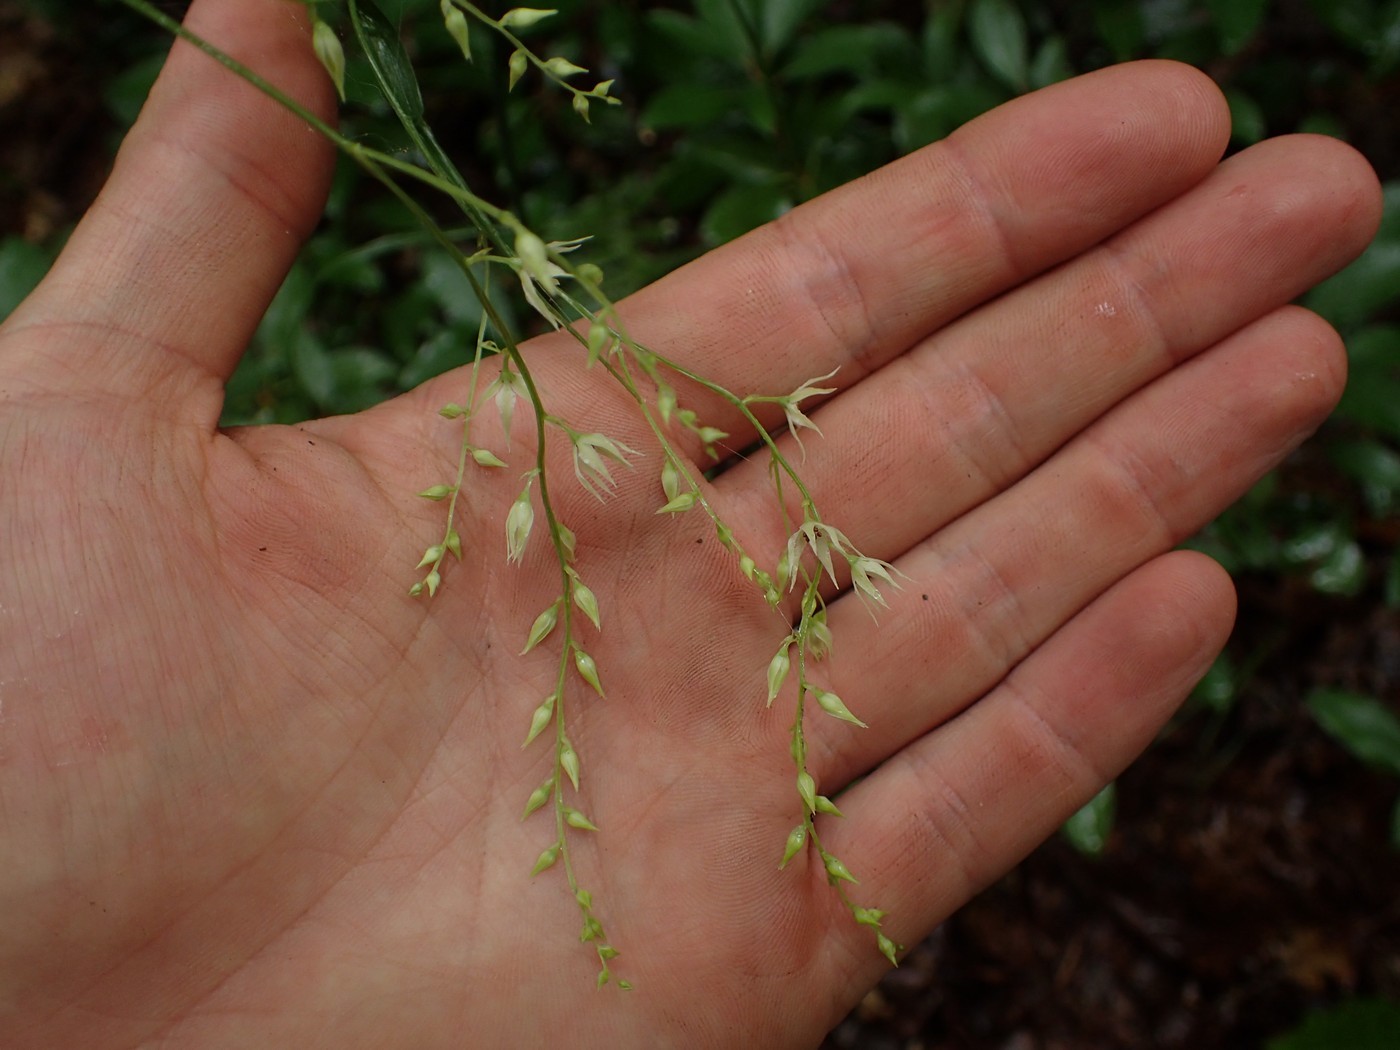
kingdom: Plantae
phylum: Tracheophyta
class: Liliopsida
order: Liliales
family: Melanthiaceae
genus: Stenanthium
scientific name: Stenanthium gramineum
